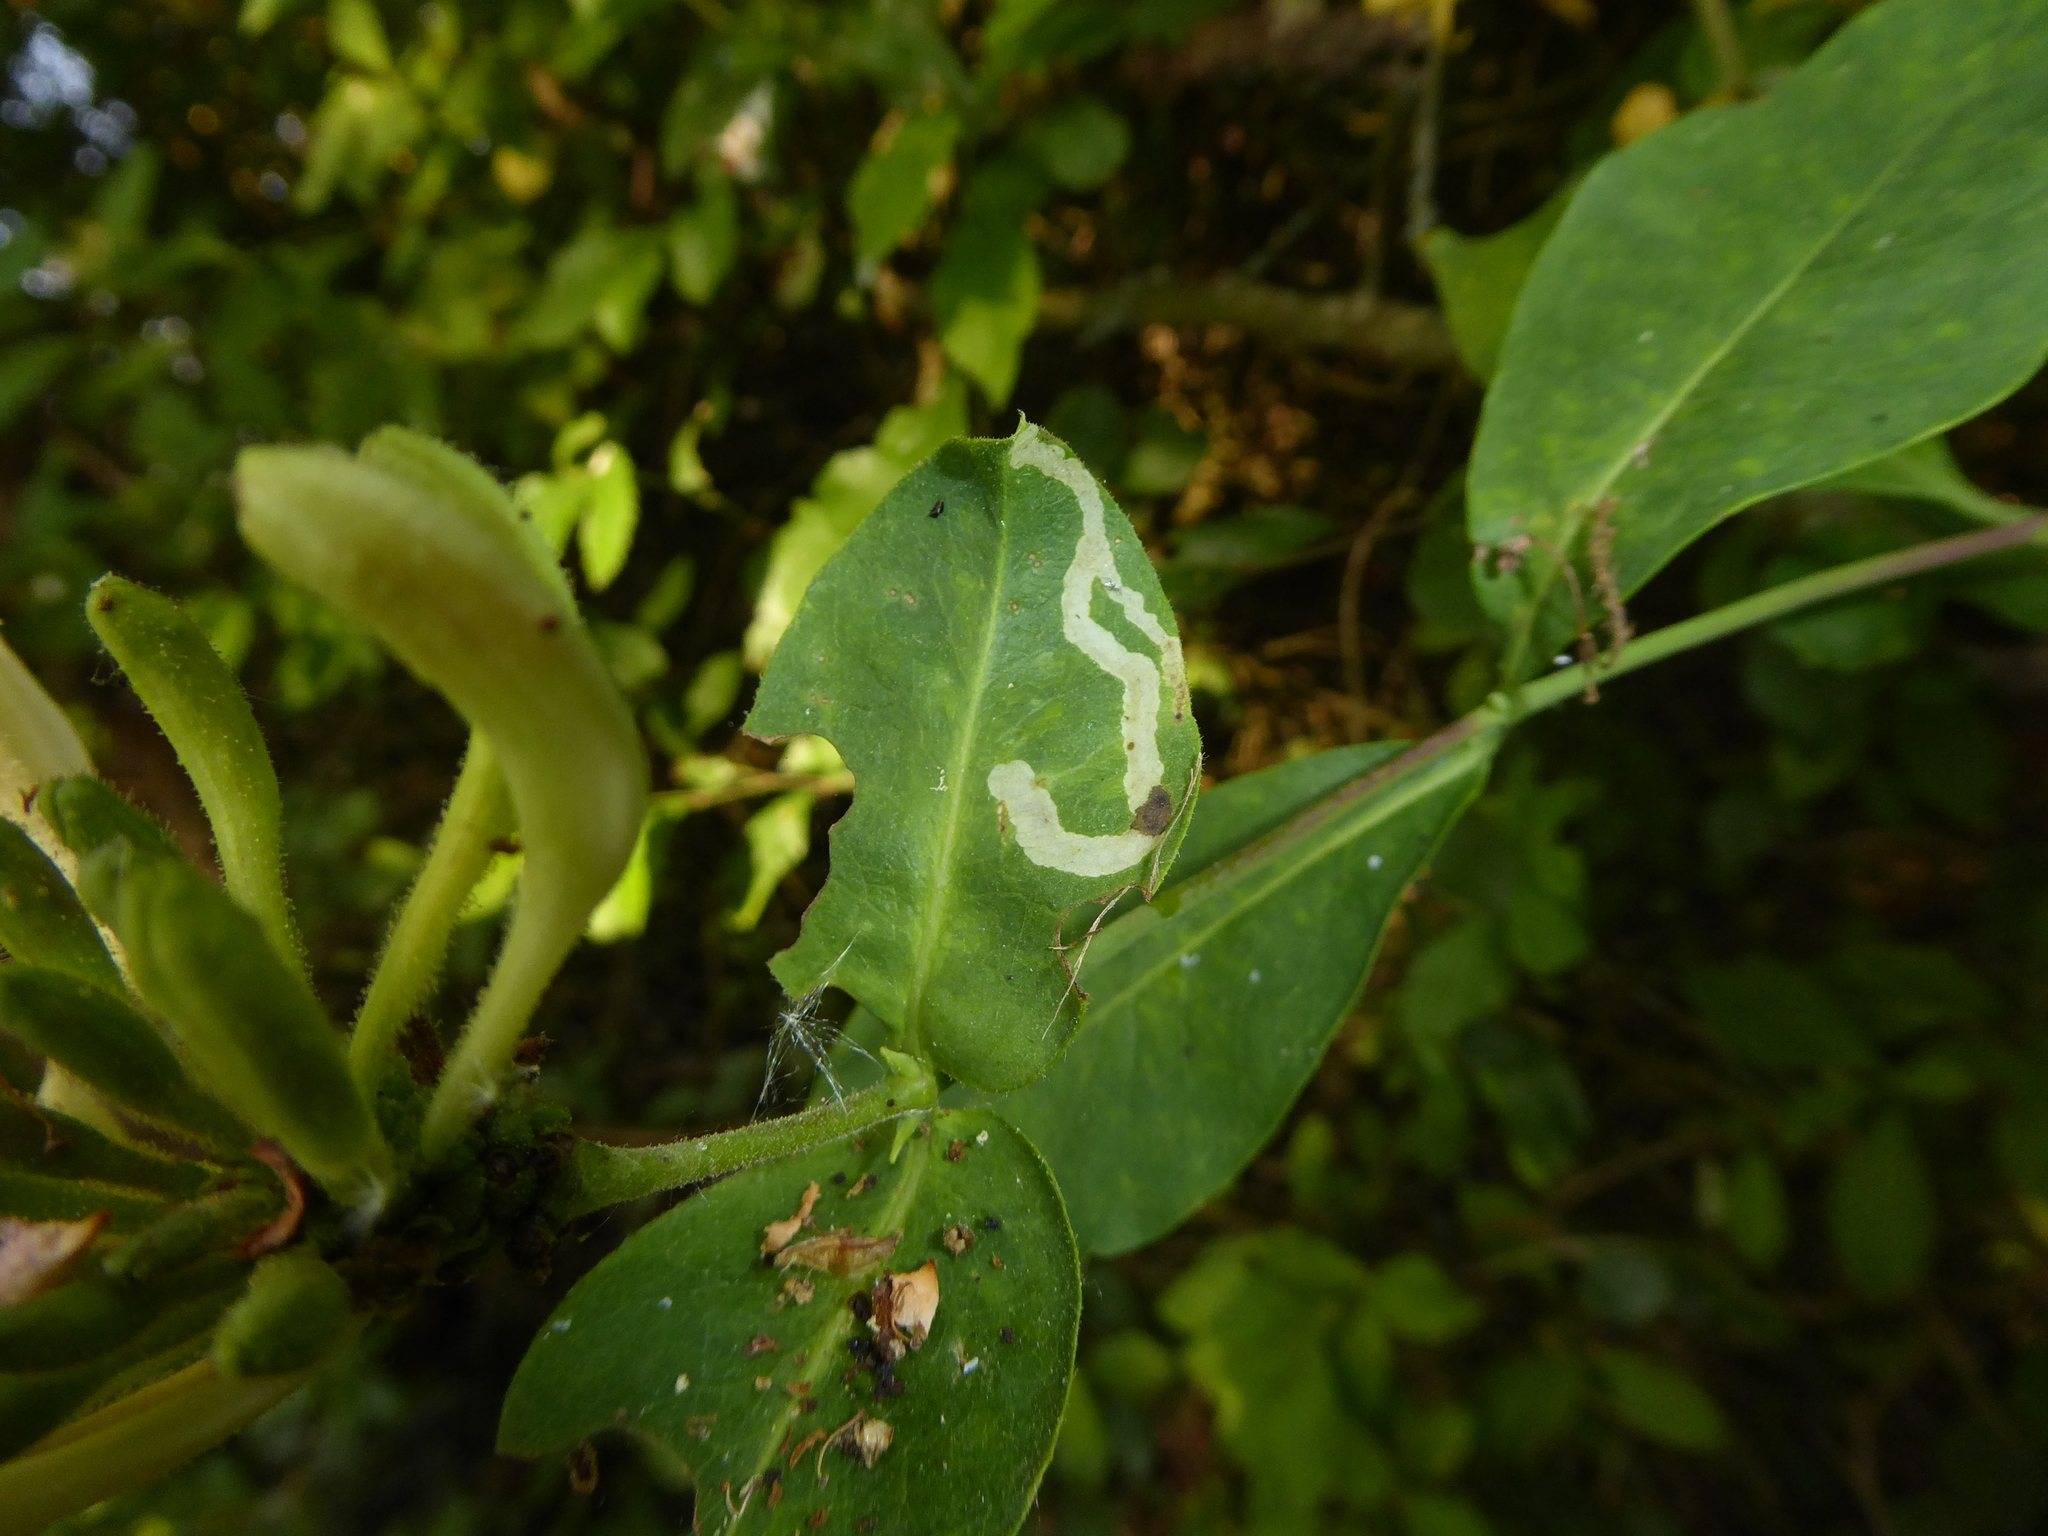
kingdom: Plantae
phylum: Tracheophyta
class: Magnoliopsida
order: Dipsacales
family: Caprifoliaceae
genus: Lonicera
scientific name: Lonicera periclymenum
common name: European honeysuckle
